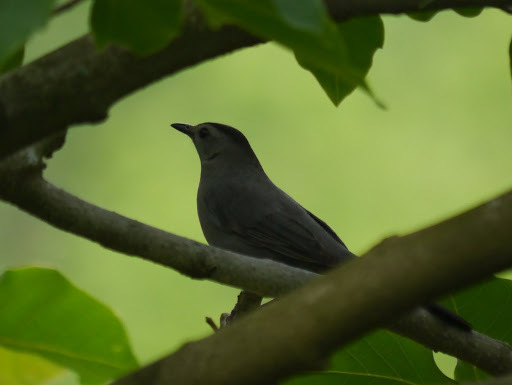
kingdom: Animalia
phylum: Chordata
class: Aves
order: Passeriformes
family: Mimidae
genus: Dumetella
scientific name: Dumetella carolinensis
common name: Gray catbird
